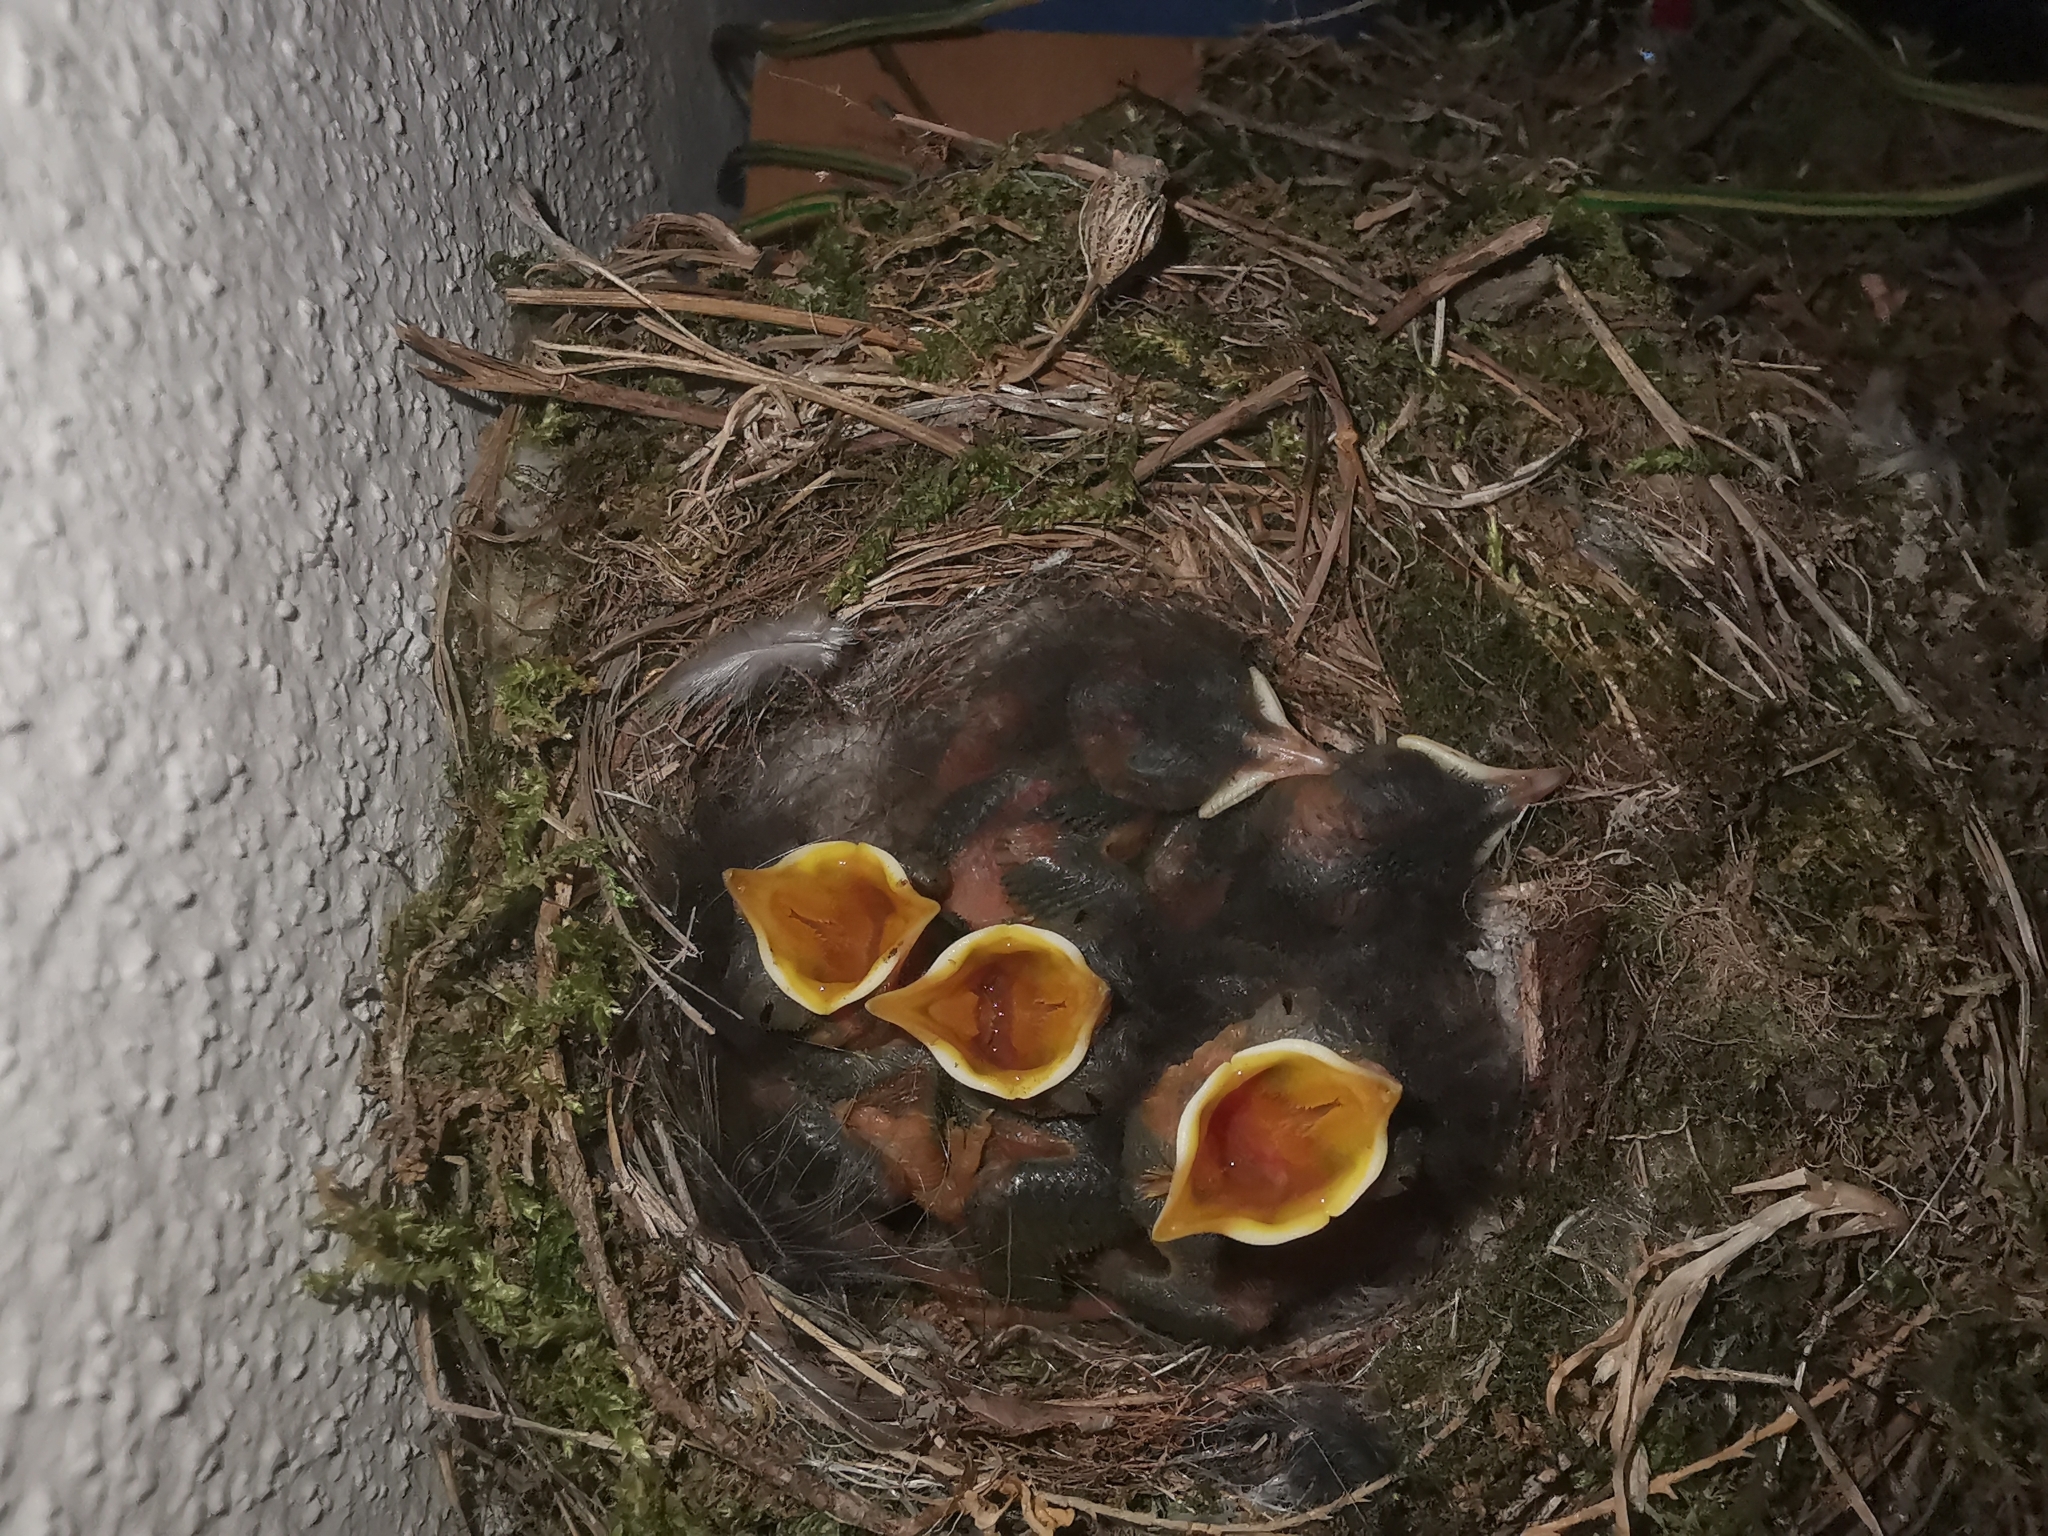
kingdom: Animalia
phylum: Chordata
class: Aves
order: Passeriformes
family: Muscicapidae
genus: Phoenicurus
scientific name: Phoenicurus ochruros
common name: Black redstart
